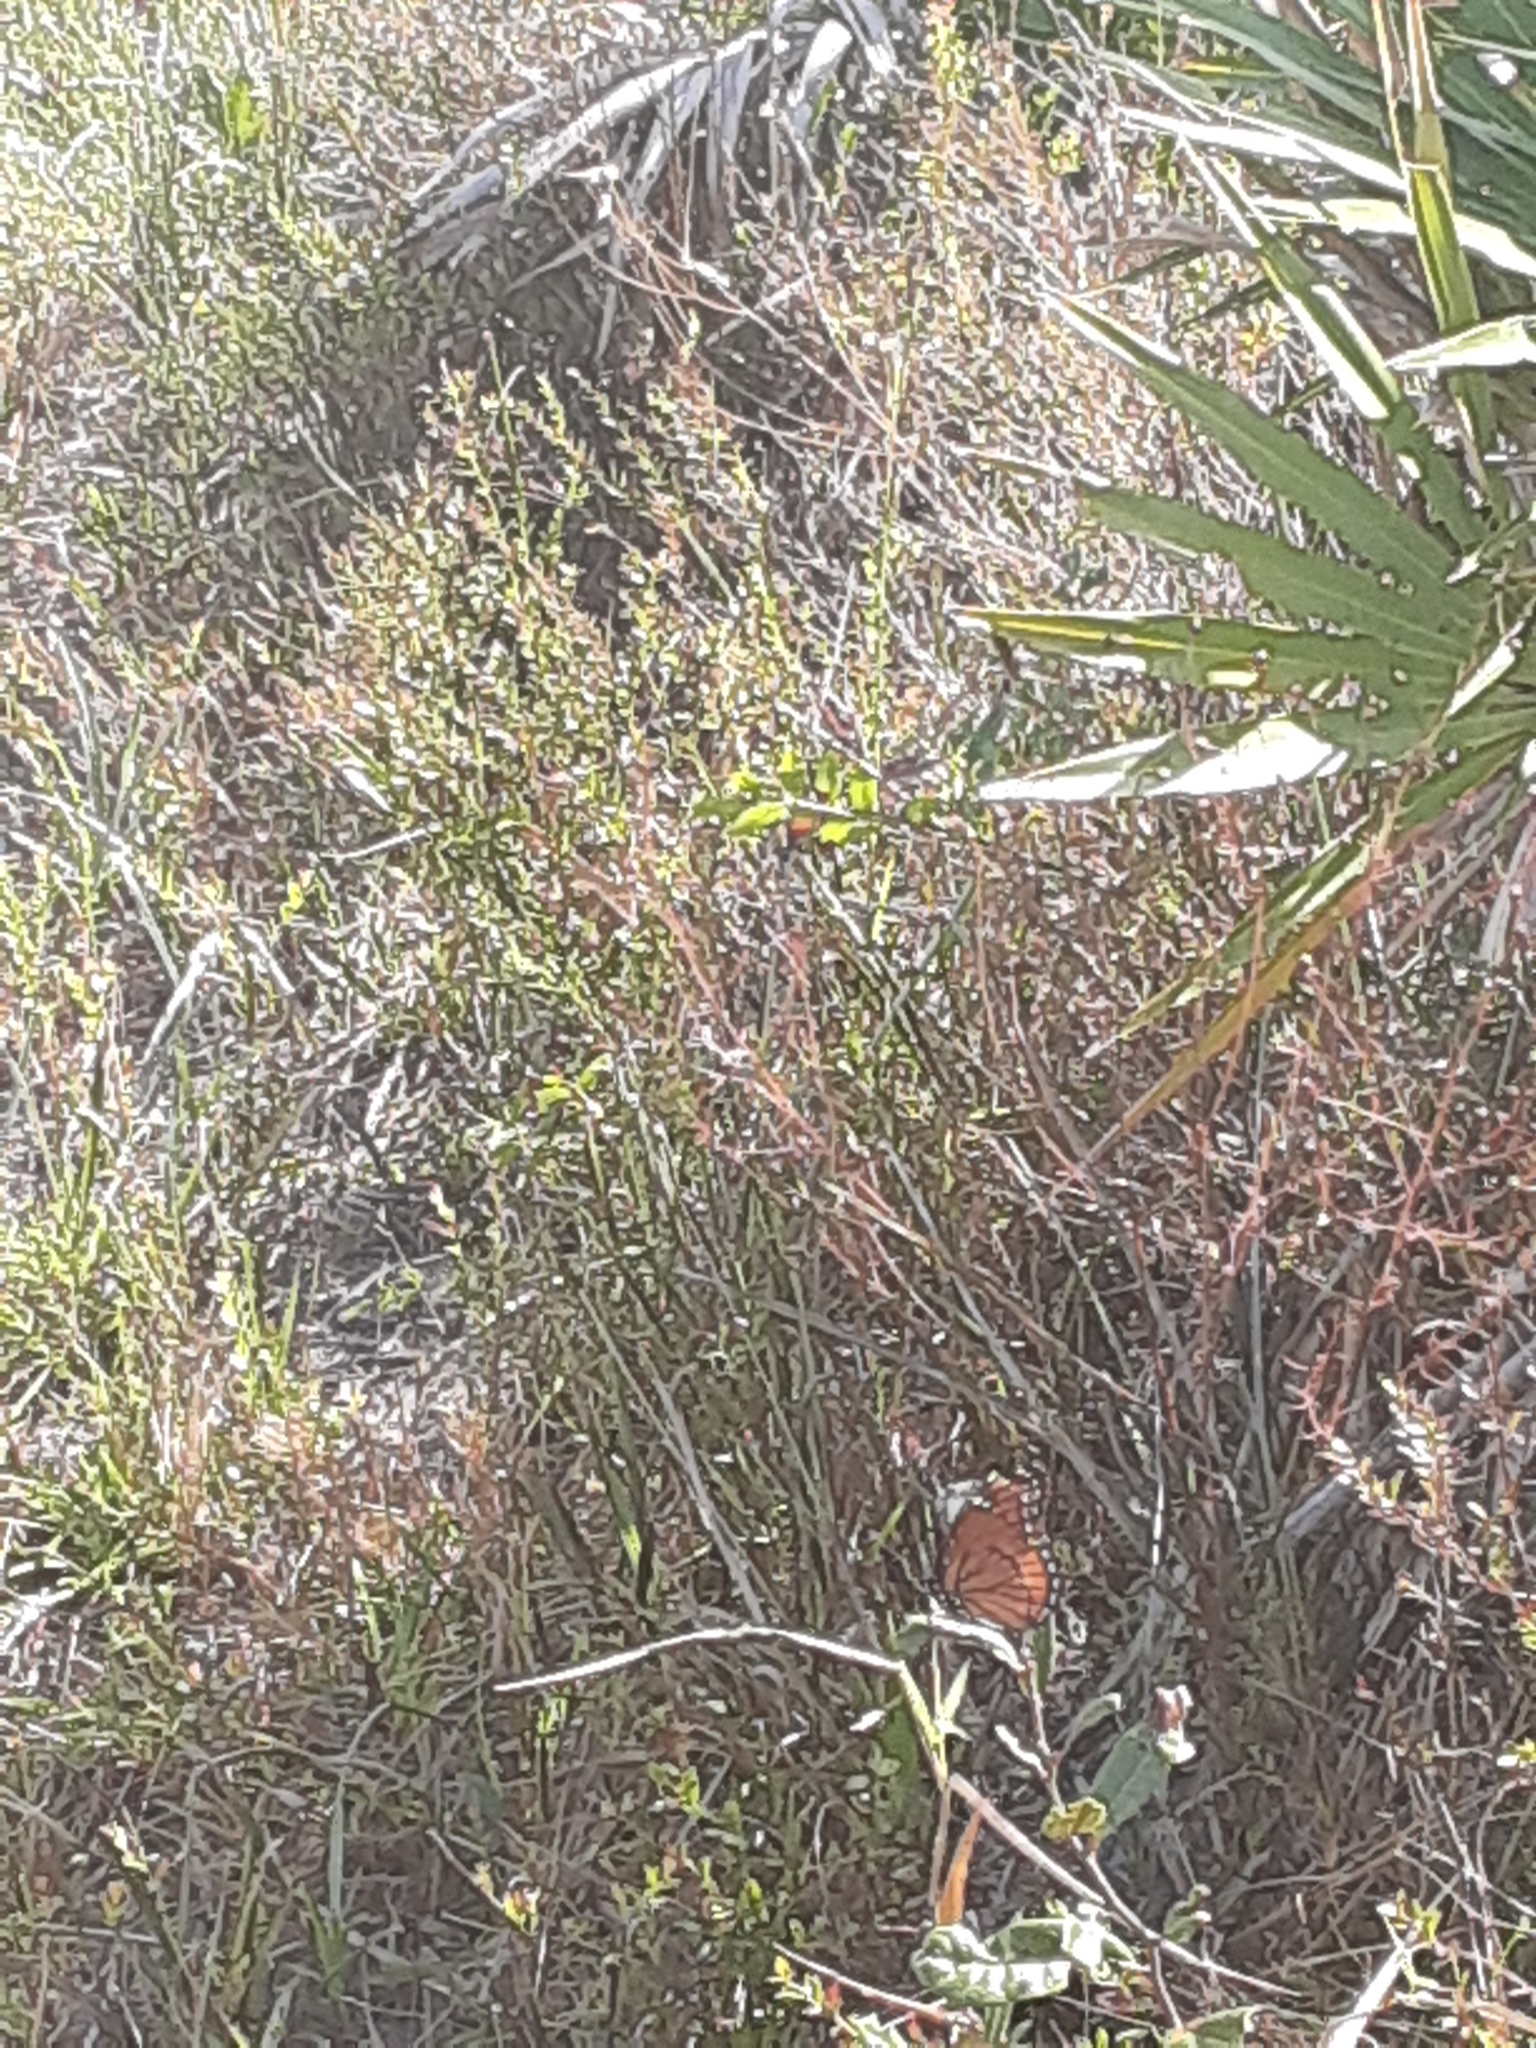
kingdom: Animalia
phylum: Arthropoda
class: Insecta
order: Lepidoptera
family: Nymphalidae
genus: Limenitis
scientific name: Limenitis archippus
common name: Viceroy
